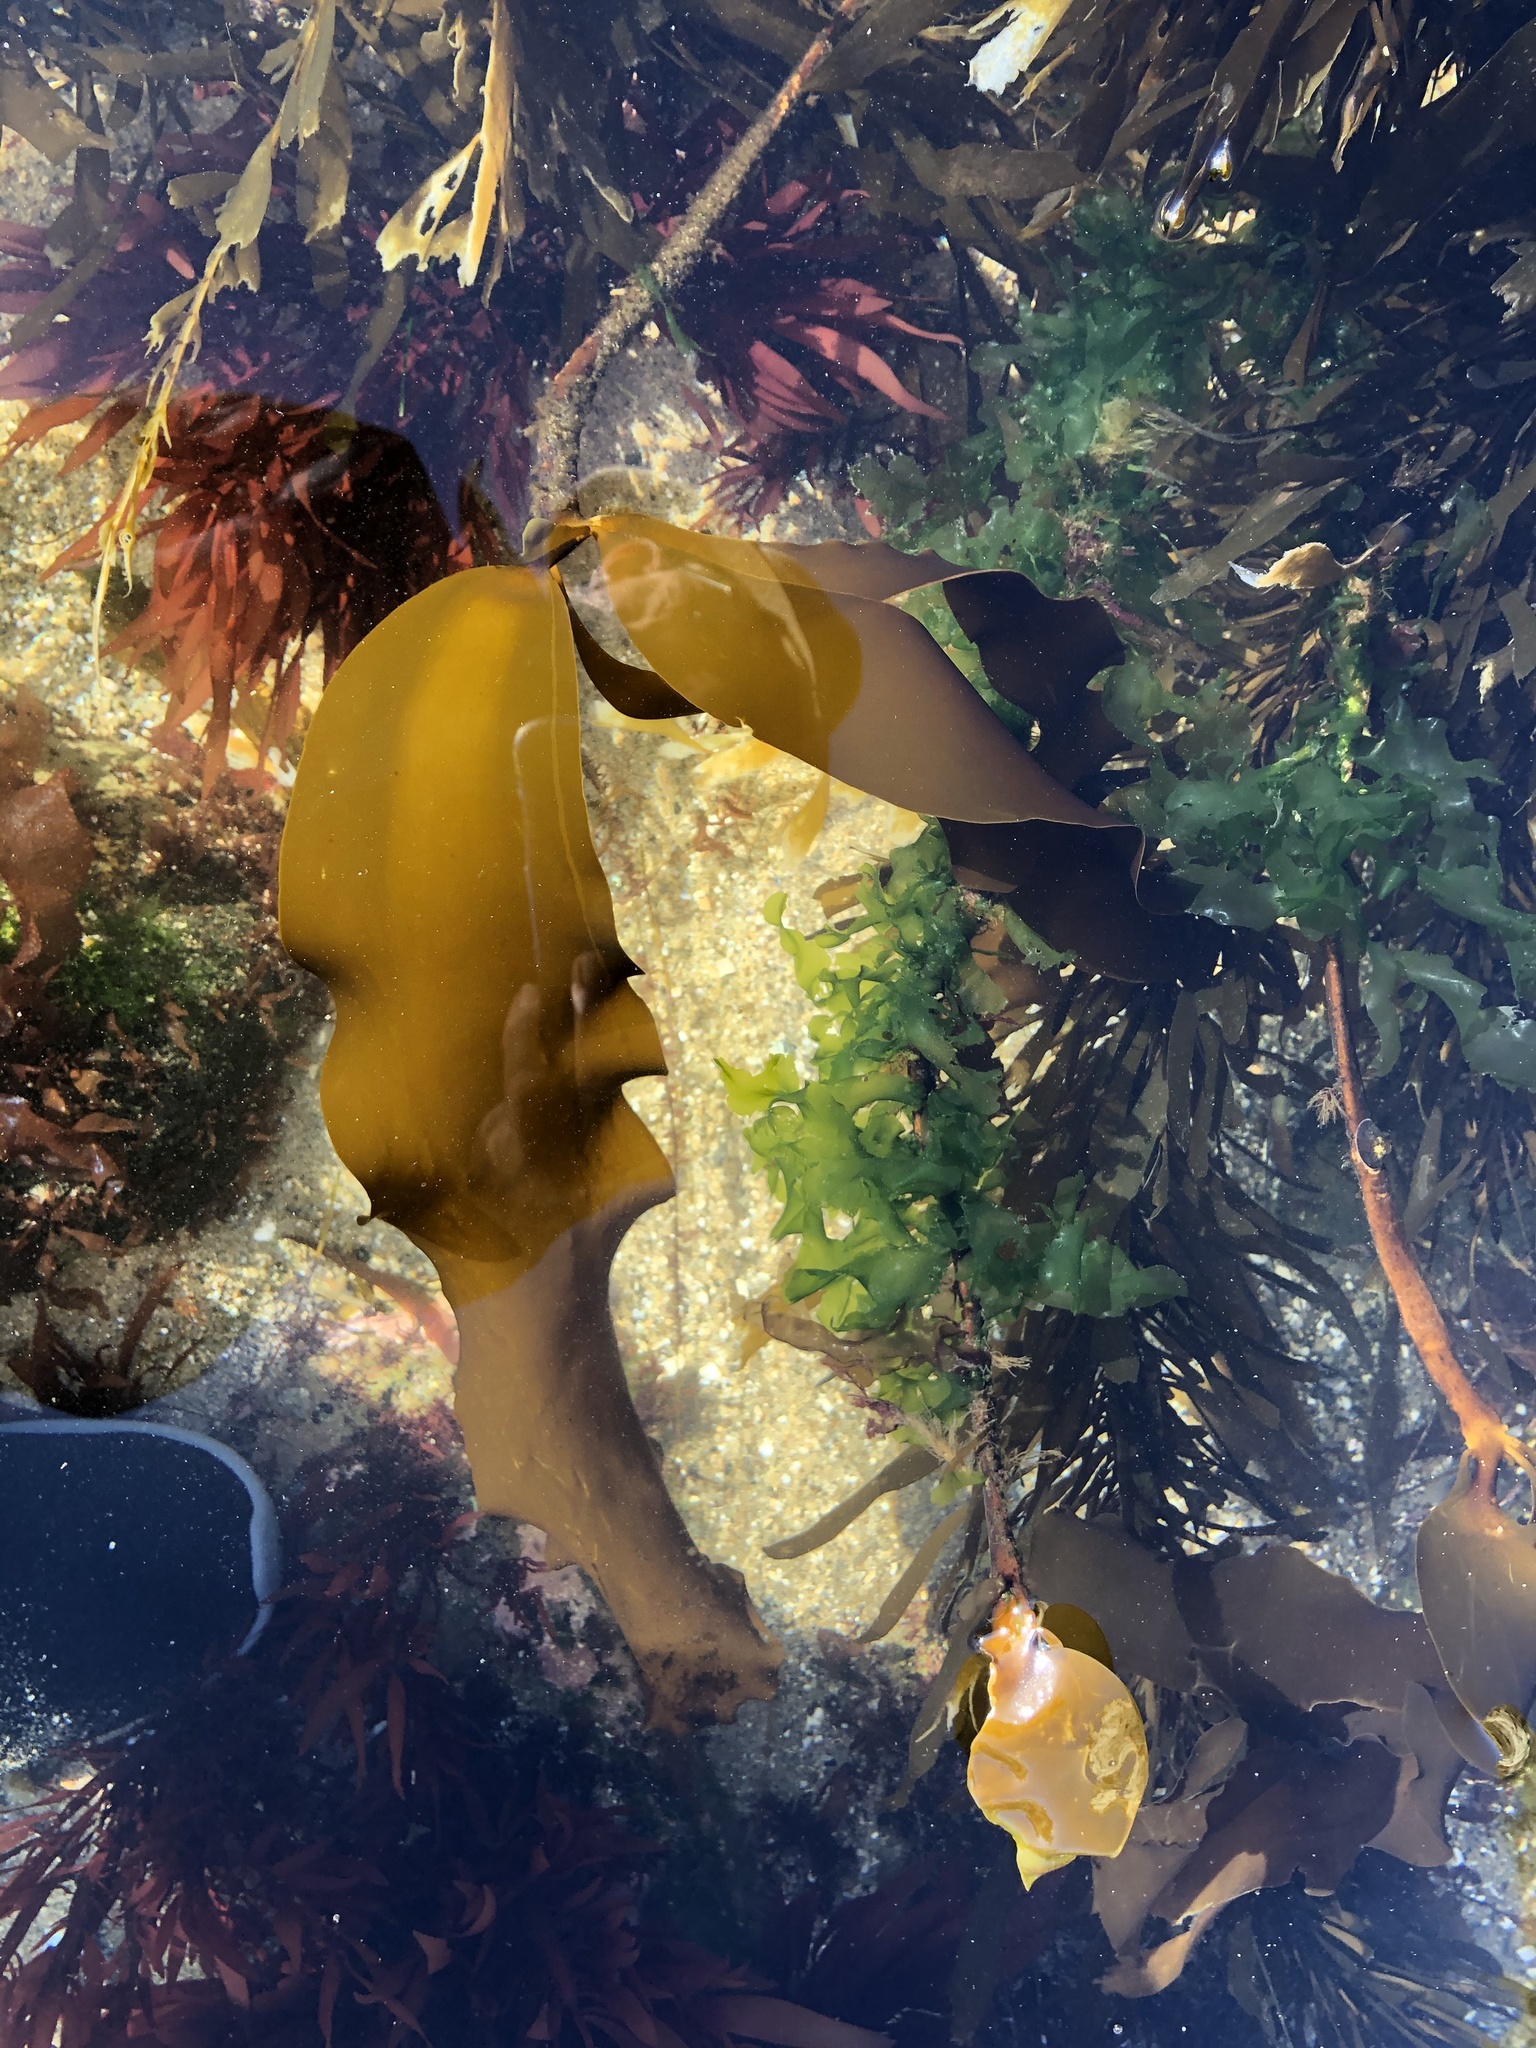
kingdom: Chromista
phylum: Ochrophyta
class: Phaeophyceae
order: Laminariales
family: Alariaceae
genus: Pterygophora
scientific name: Pterygophora californica
